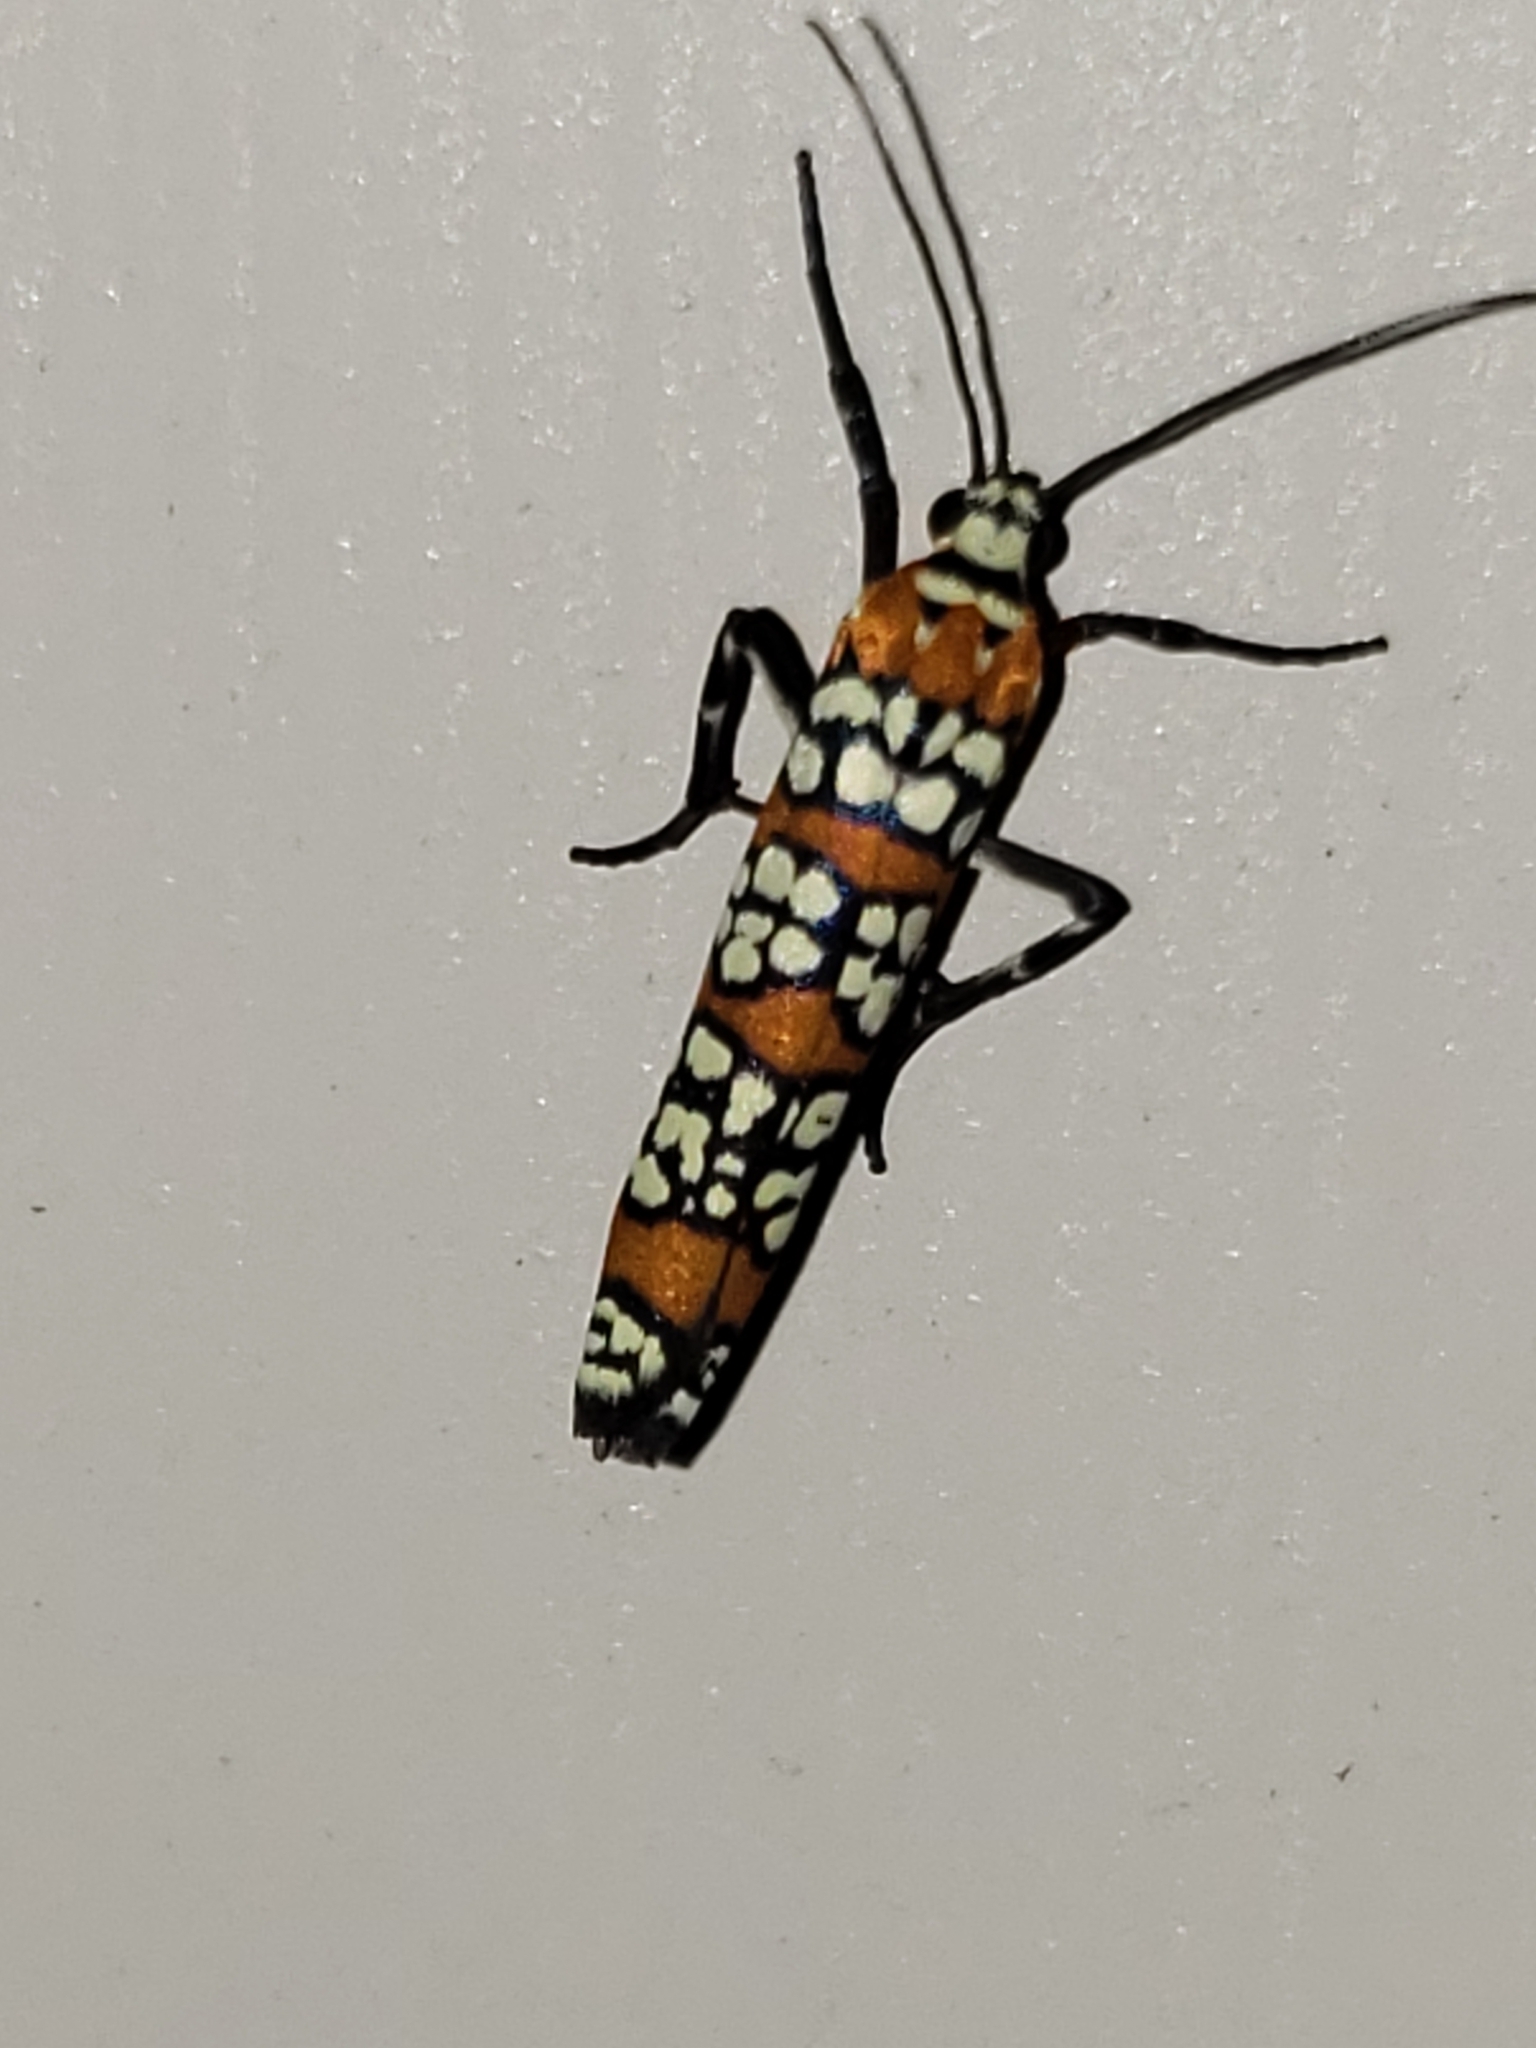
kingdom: Animalia
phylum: Arthropoda
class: Insecta
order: Lepidoptera
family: Attevidae
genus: Atteva
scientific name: Atteva punctella
